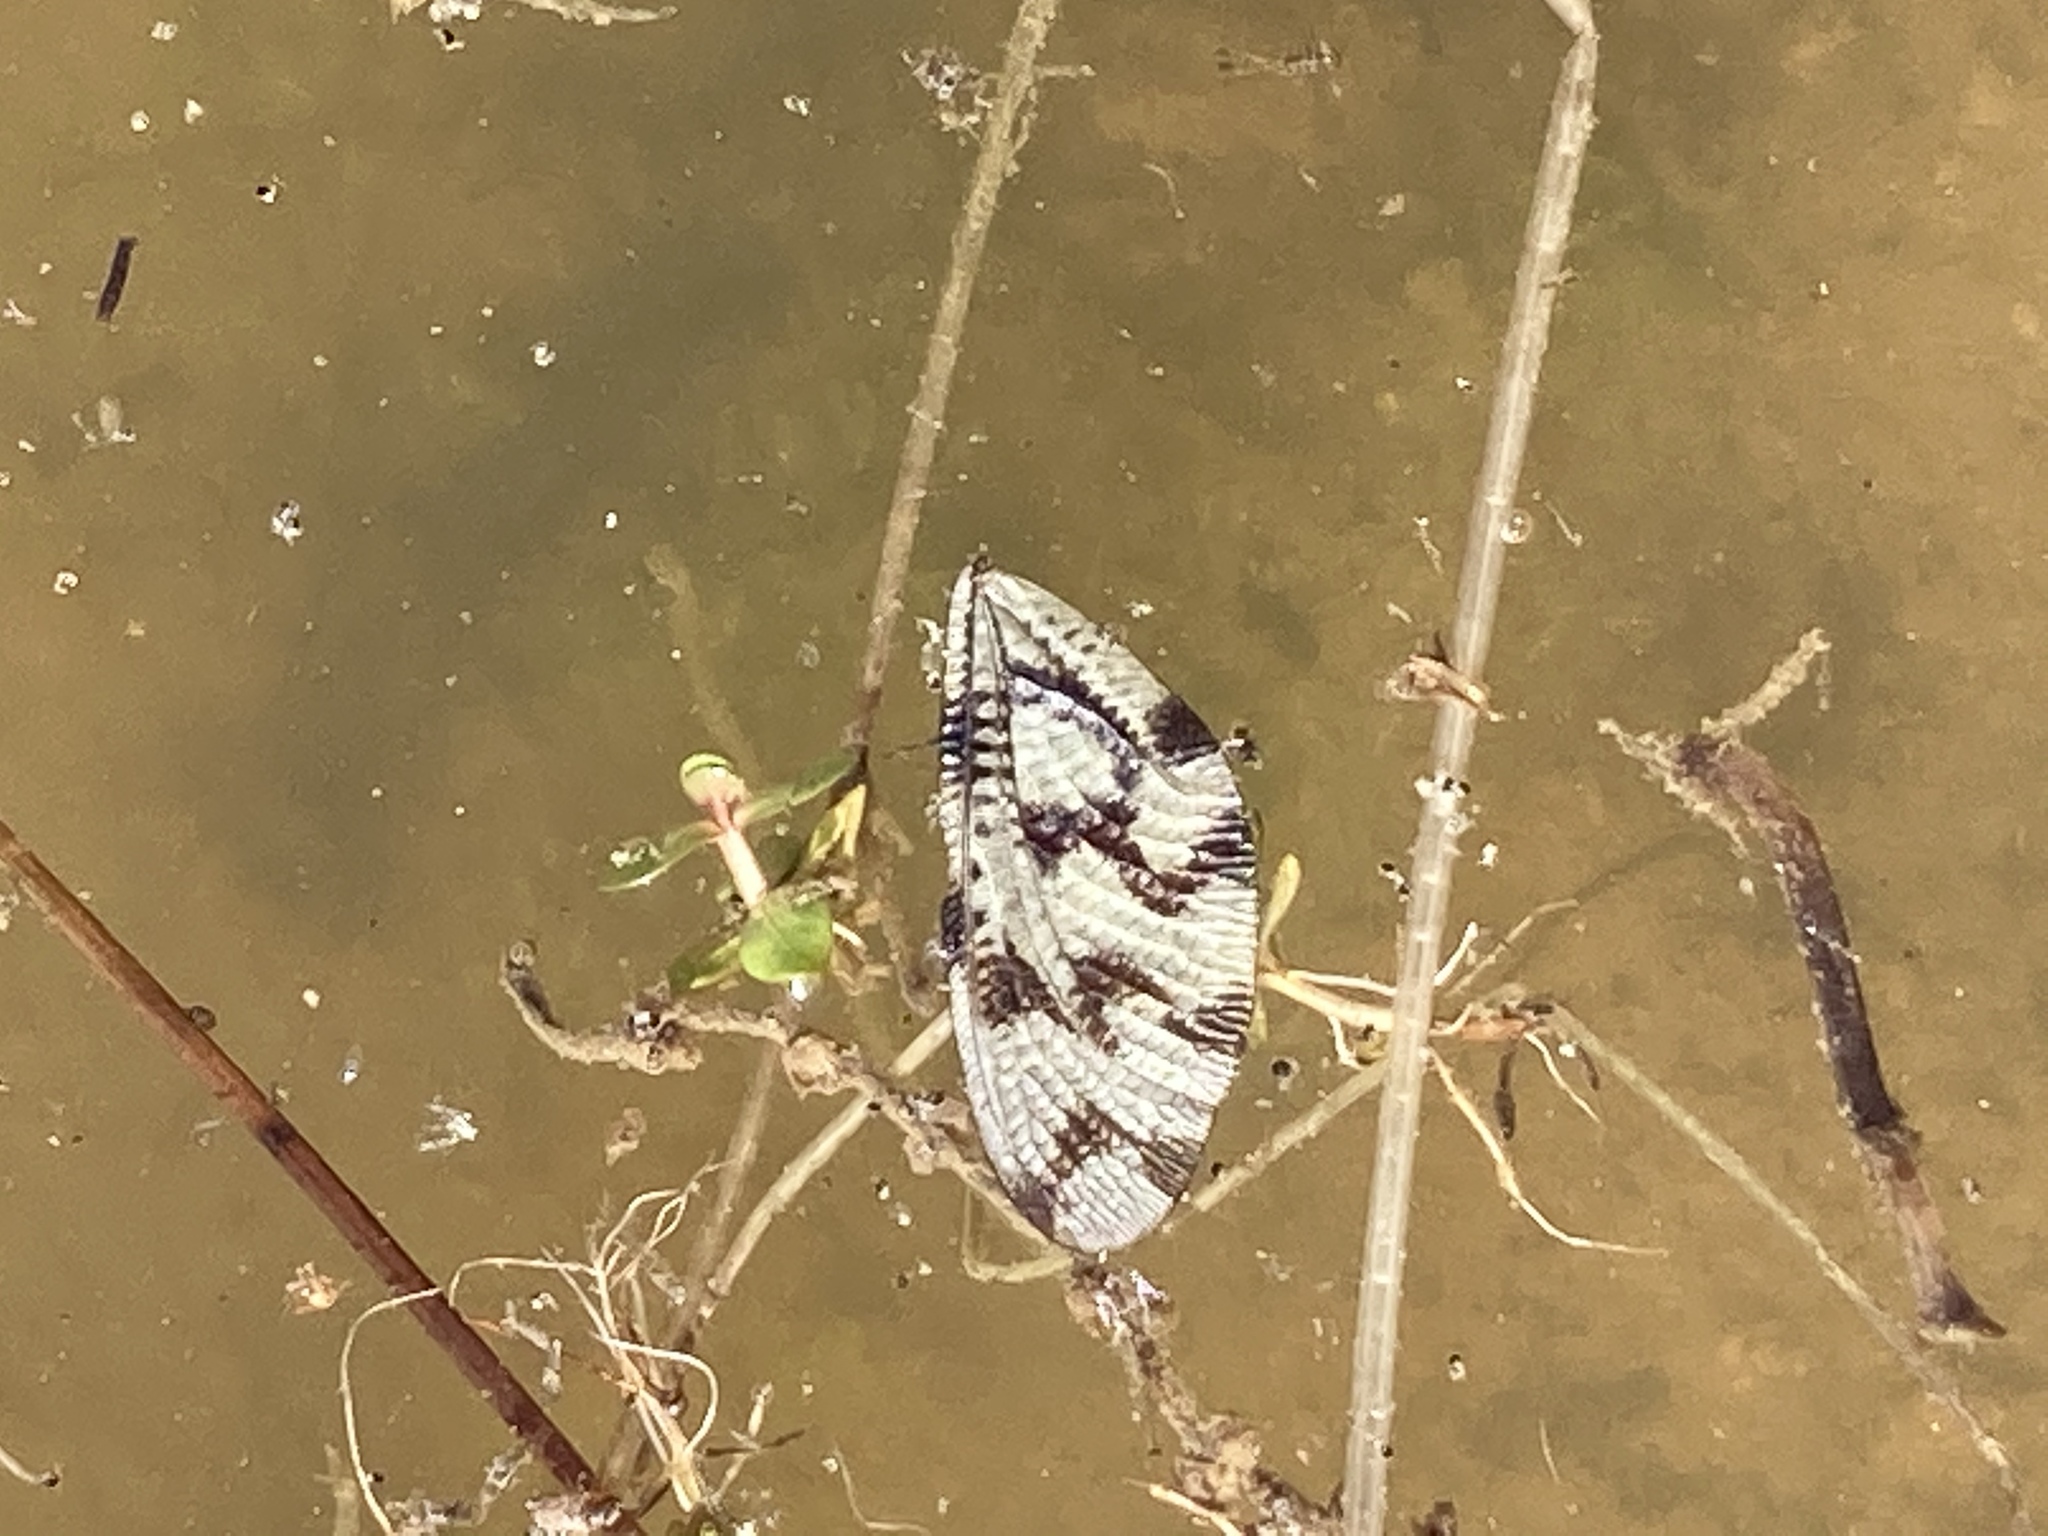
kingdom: Animalia
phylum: Arthropoda
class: Insecta
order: Neuroptera
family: Nemopteridae
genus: Nemoptera
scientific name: Nemoptera sinuata
